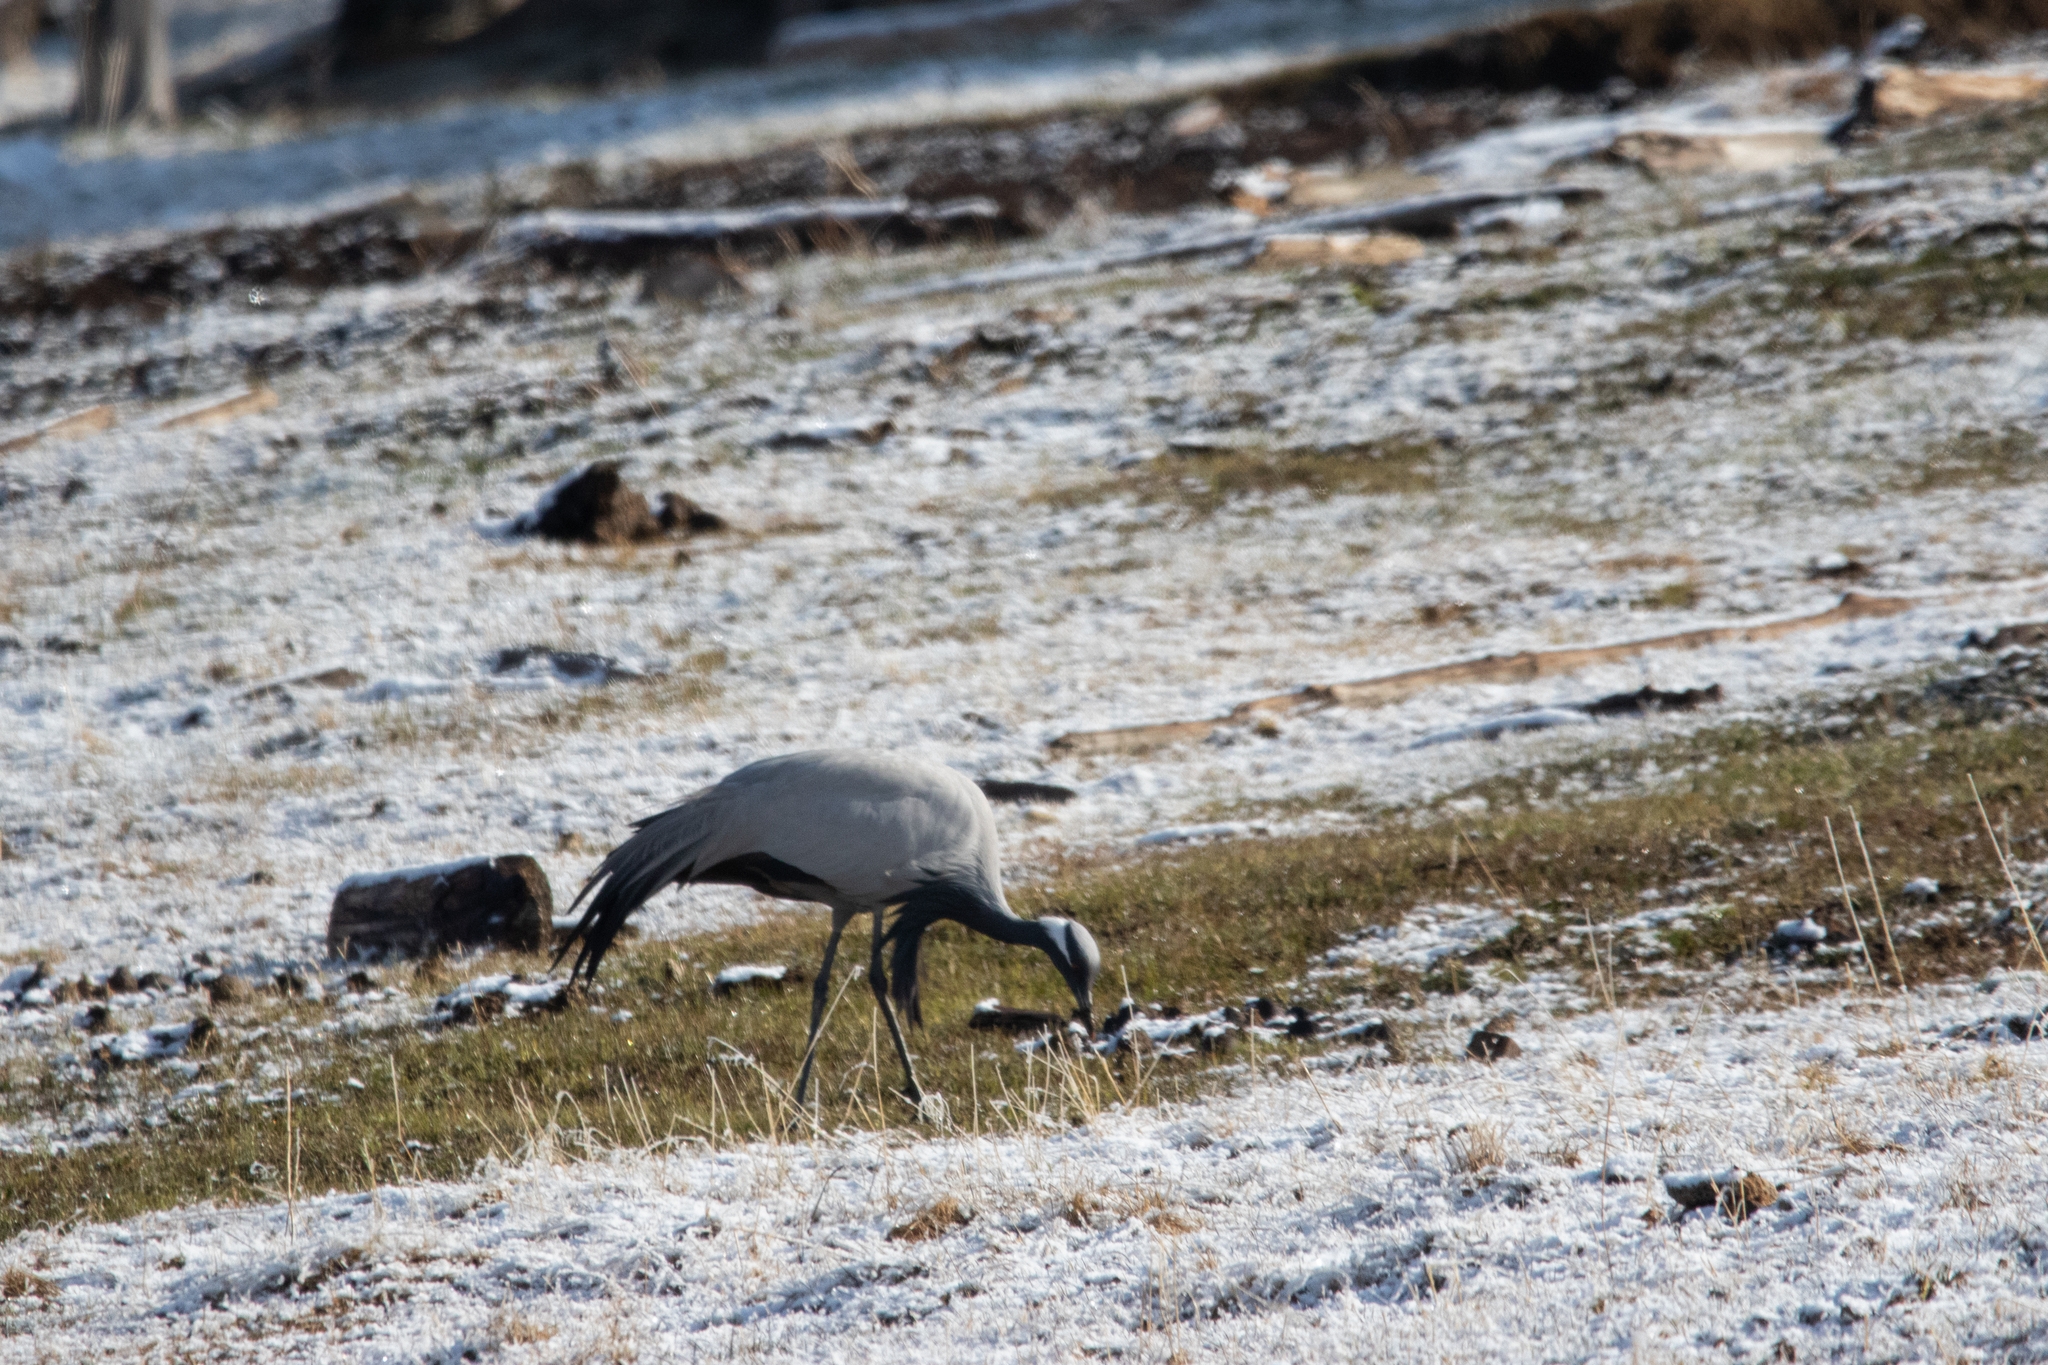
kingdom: Animalia
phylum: Chordata
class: Aves
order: Gruiformes
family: Gruidae
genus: Anthropoides
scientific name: Anthropoides virgo
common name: Demoiselle crane
